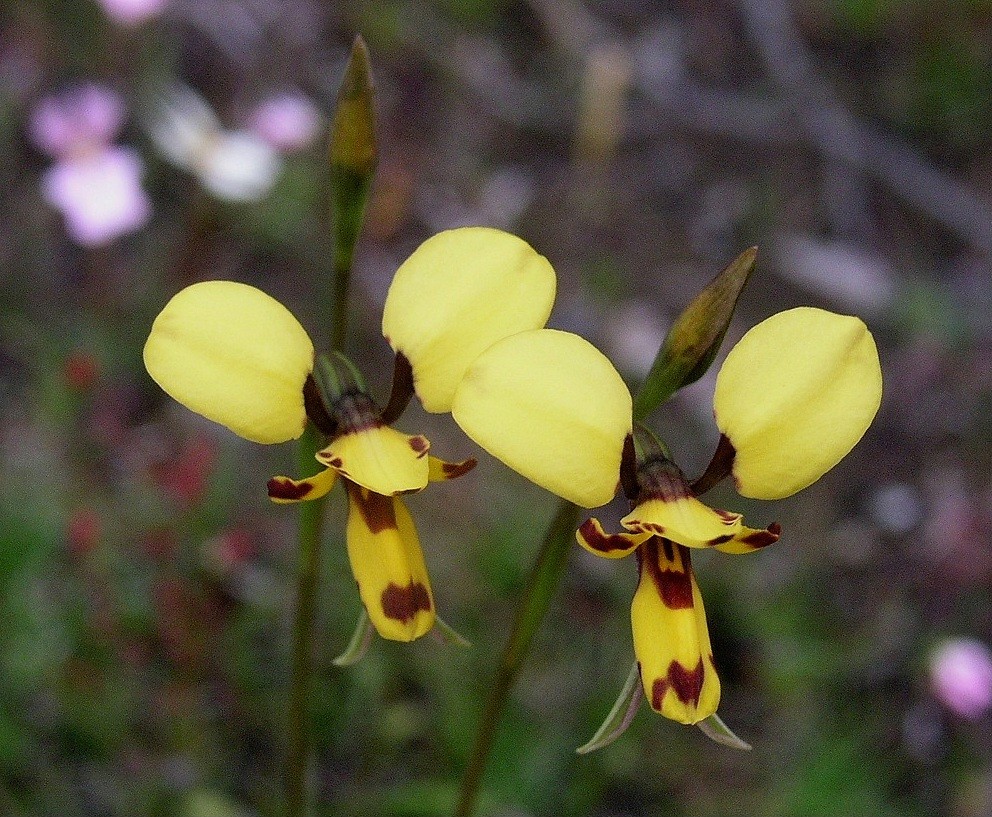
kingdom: Plantae
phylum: Tracheophyta
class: Liliopsida
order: Asparagales
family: Orchidaceae
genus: Diuris
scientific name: Diuris laxiflora
